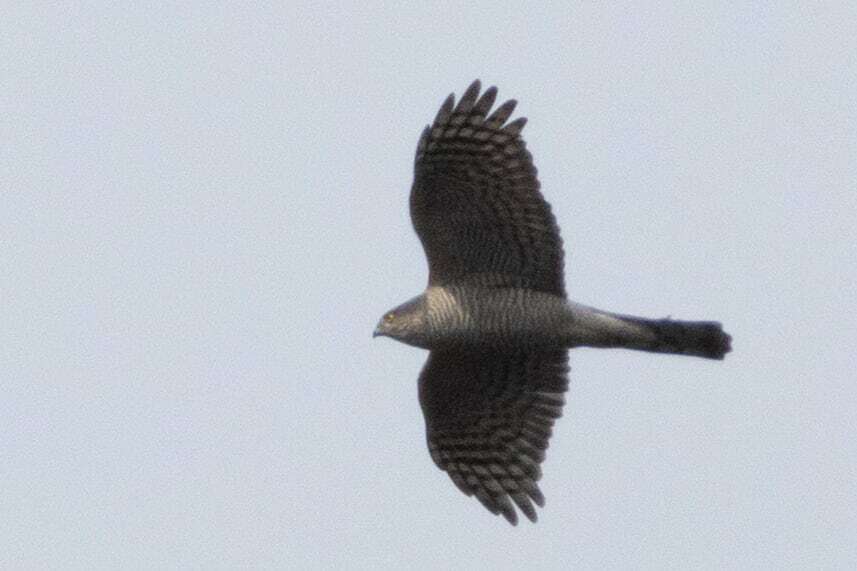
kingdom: Animalia
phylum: Chordata
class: Aves
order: Accipitriformes
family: Accipitridae
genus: Accipiter
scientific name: Accipiter nisus
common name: Eurasian sparrowhawk
